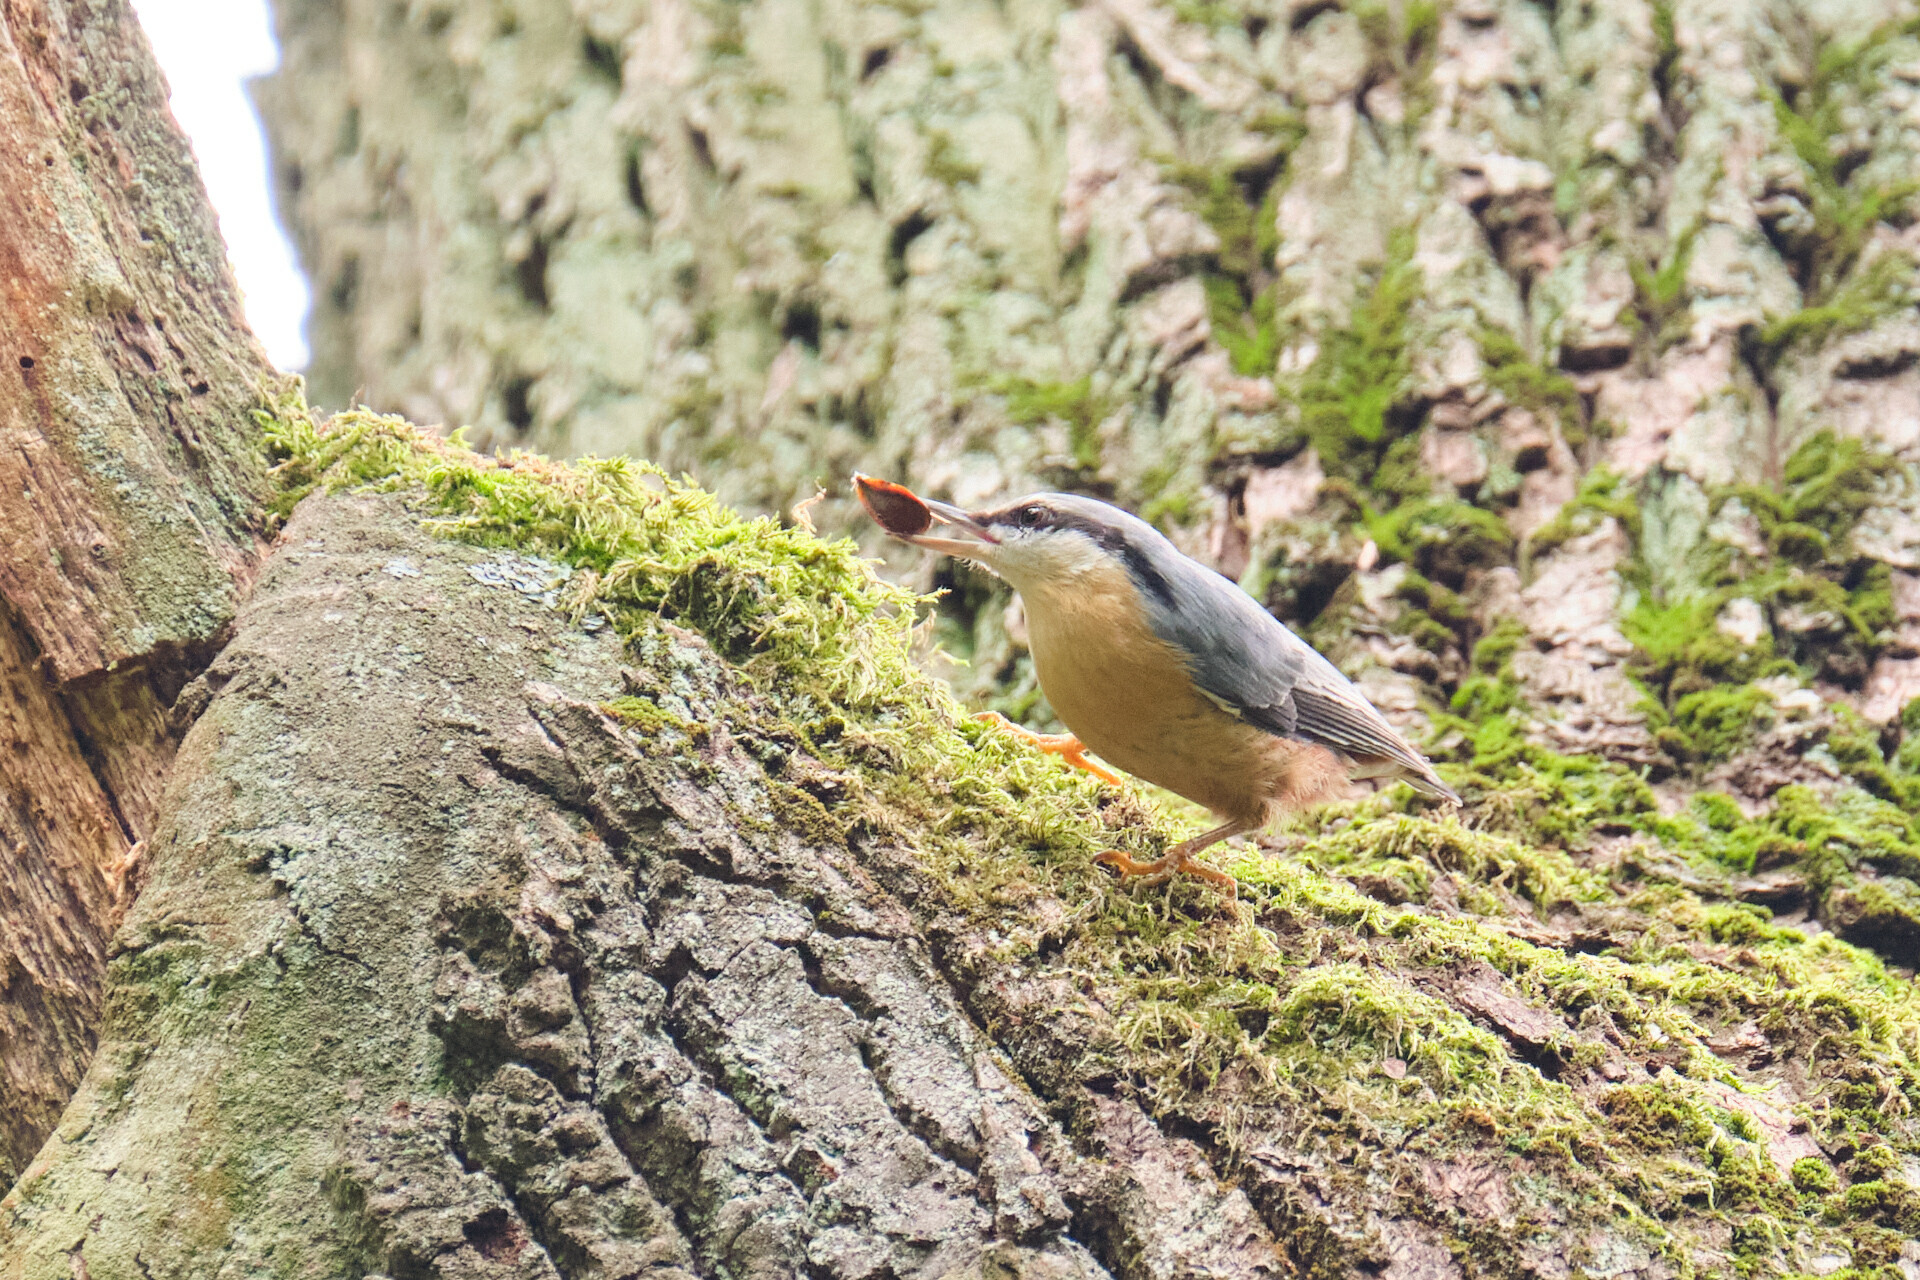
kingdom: Animalia
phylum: Chordata
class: Aves
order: Passeriformes
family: Sittidae
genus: Sitta
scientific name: Sitta europaea
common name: Eurasian nuthatch
